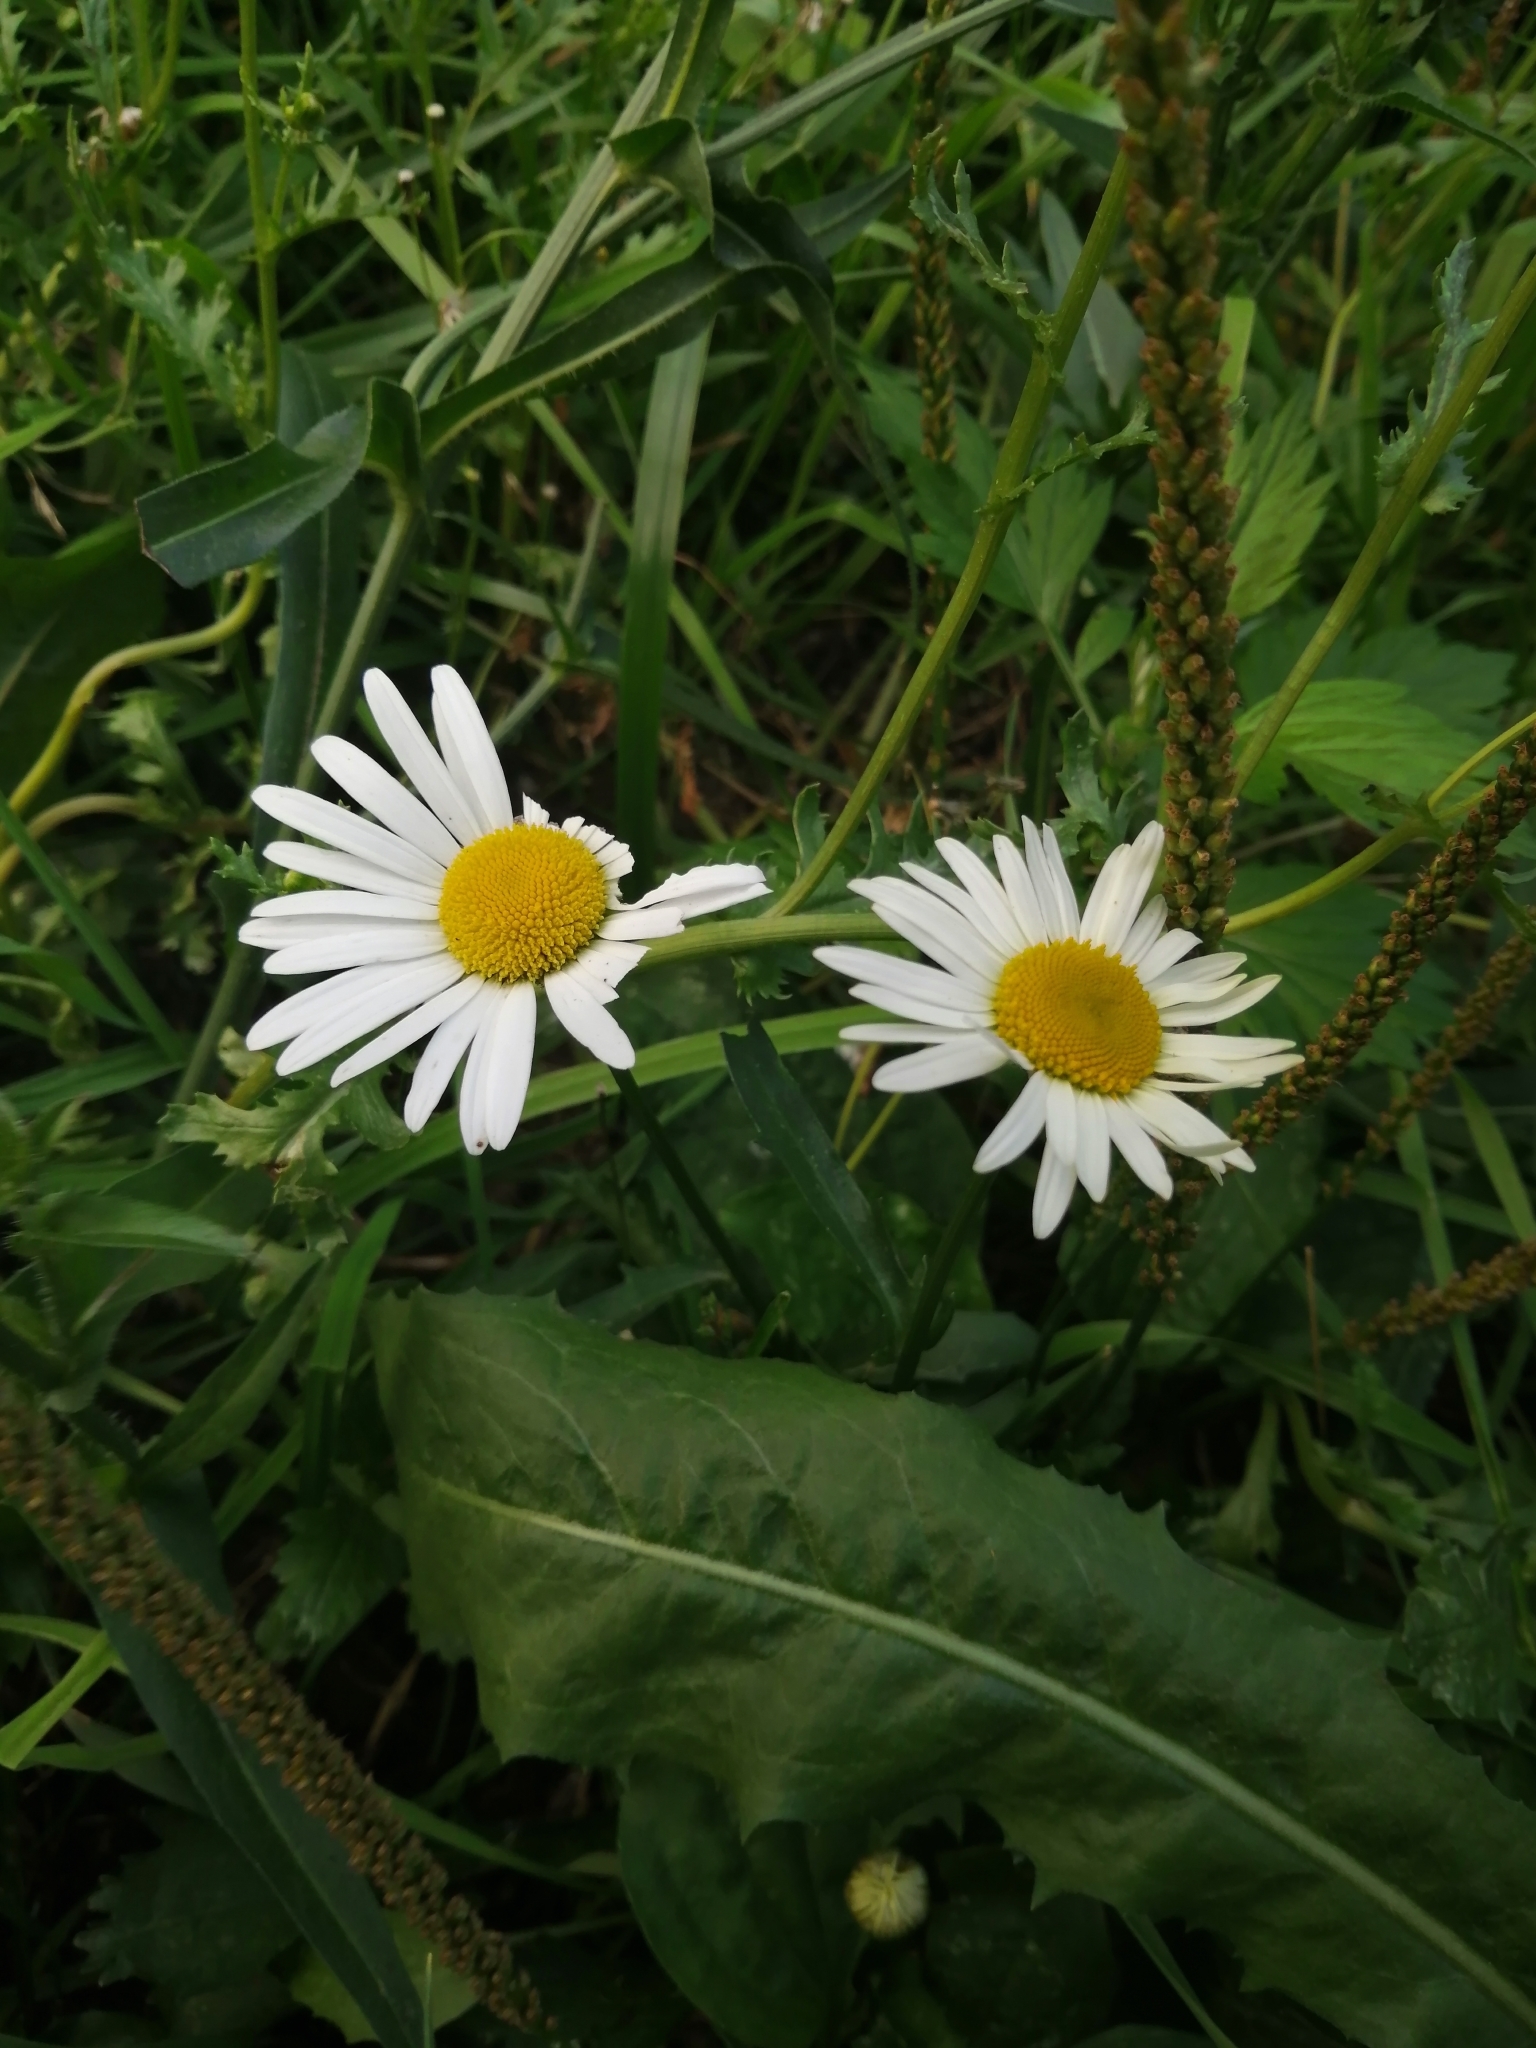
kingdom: Plantae
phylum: Tracheophyta
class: Magnoliopsida
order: Asterales
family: Asteraceae
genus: Leucanthemum
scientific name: Leucanthemum vulgare
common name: Oxeye daisy
